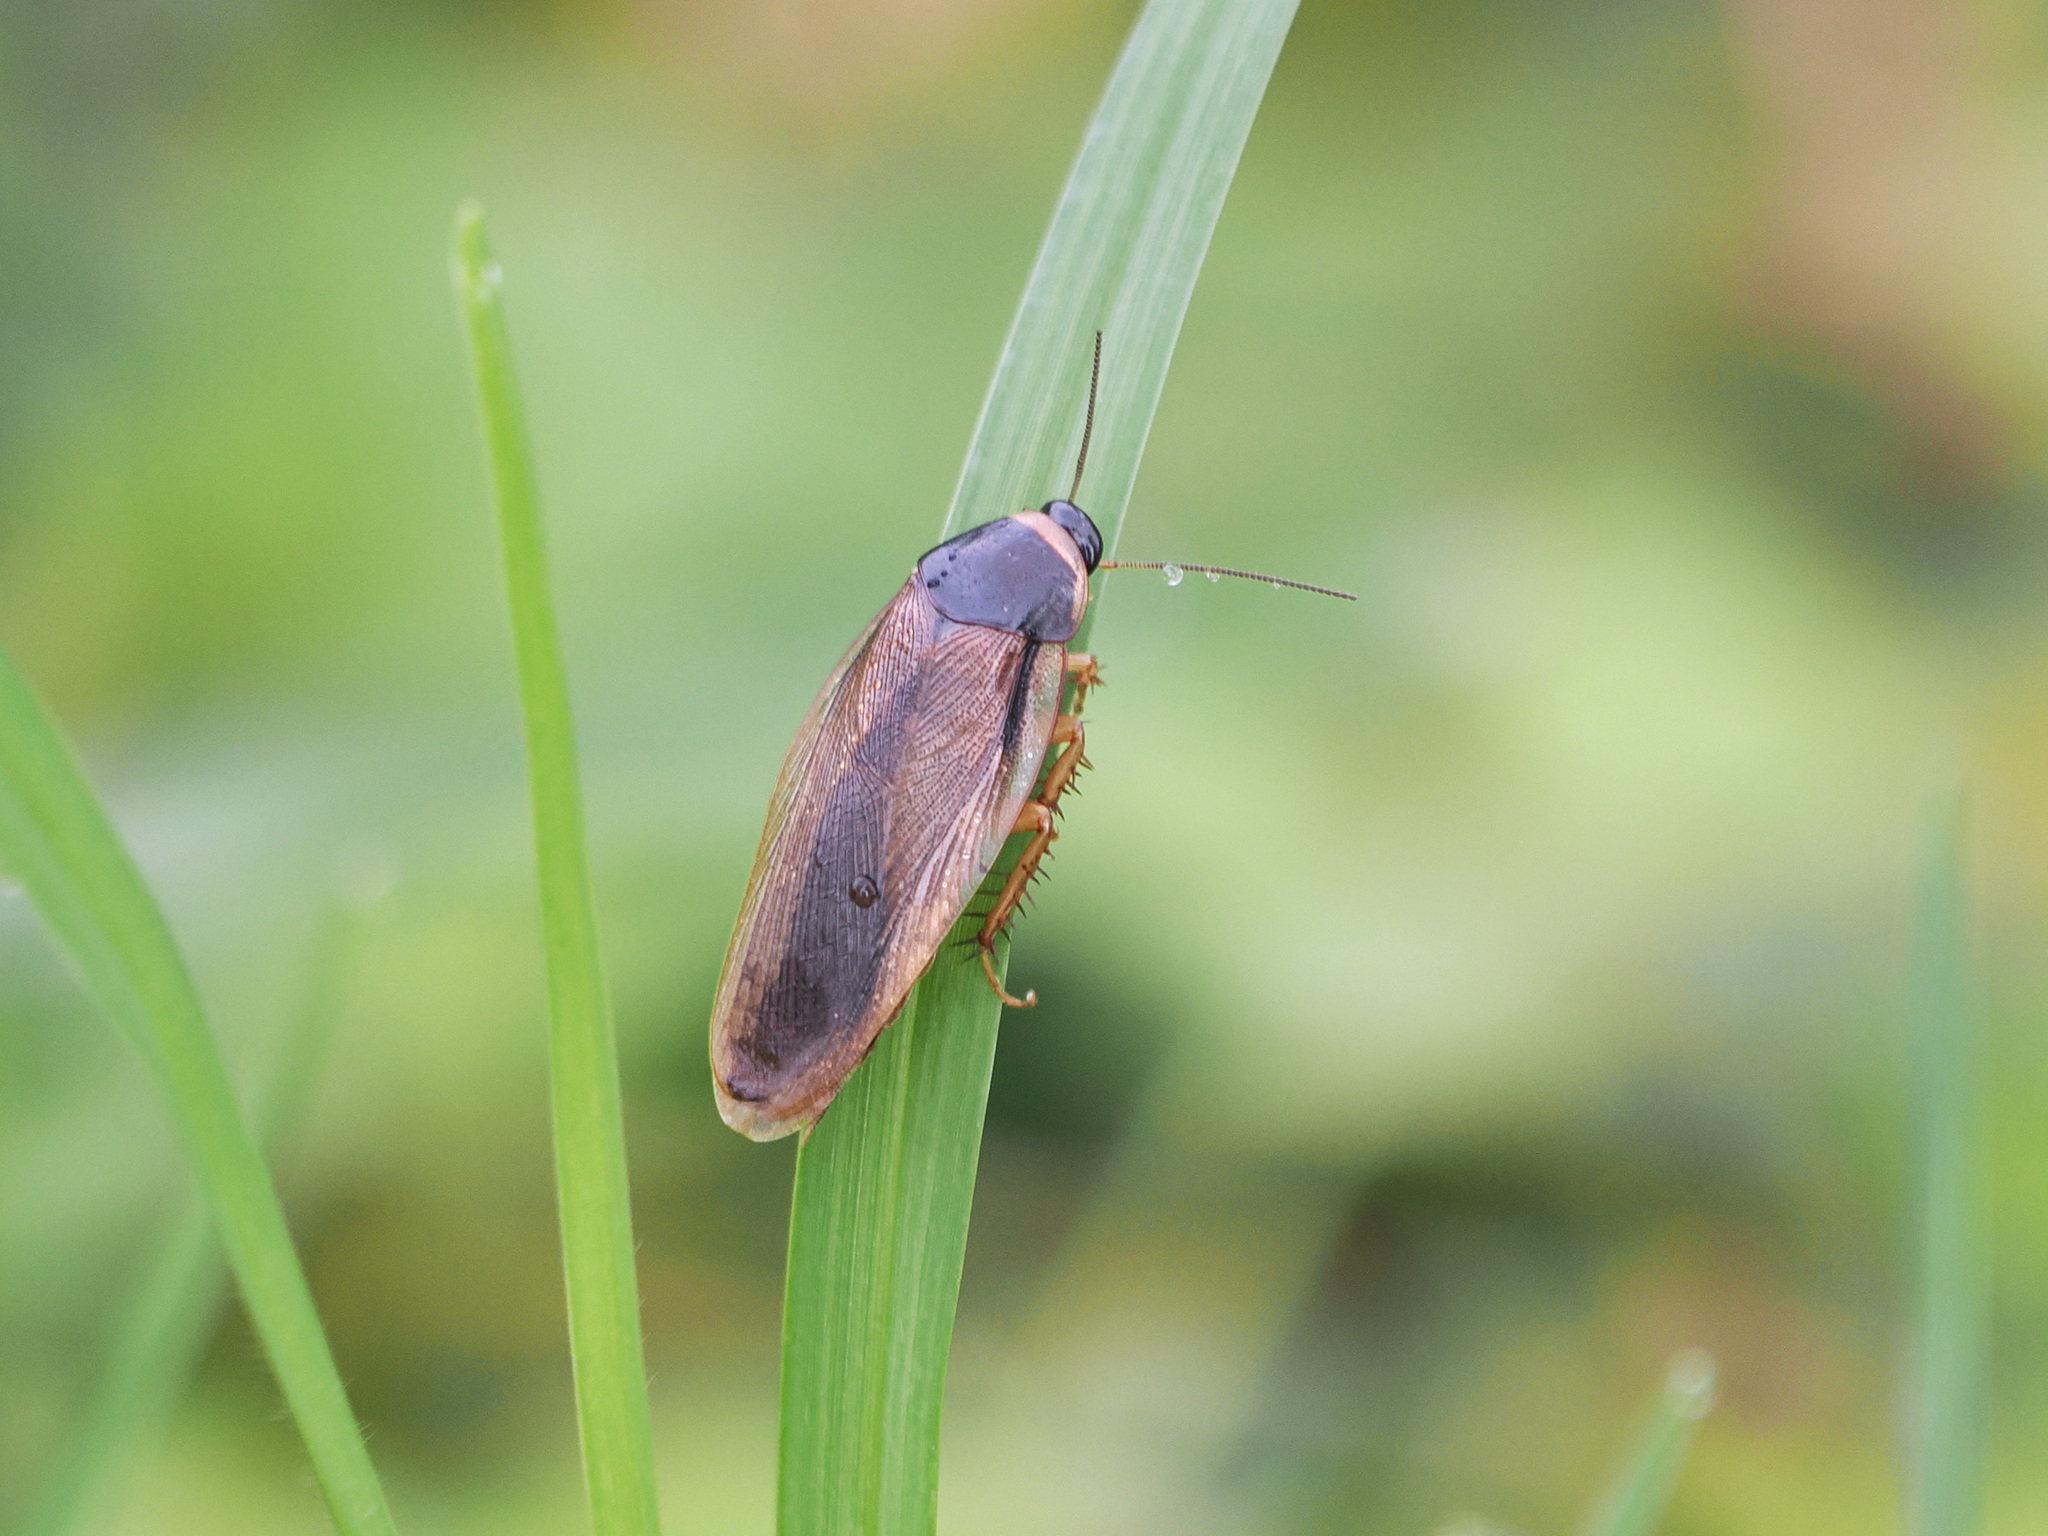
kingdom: Animalia
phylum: Arthropoda
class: Insecta
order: Blattodea
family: Blaberidae
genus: Pycnoscelus
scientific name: Pycnoscelus indicus
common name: Burrowing cockroach
